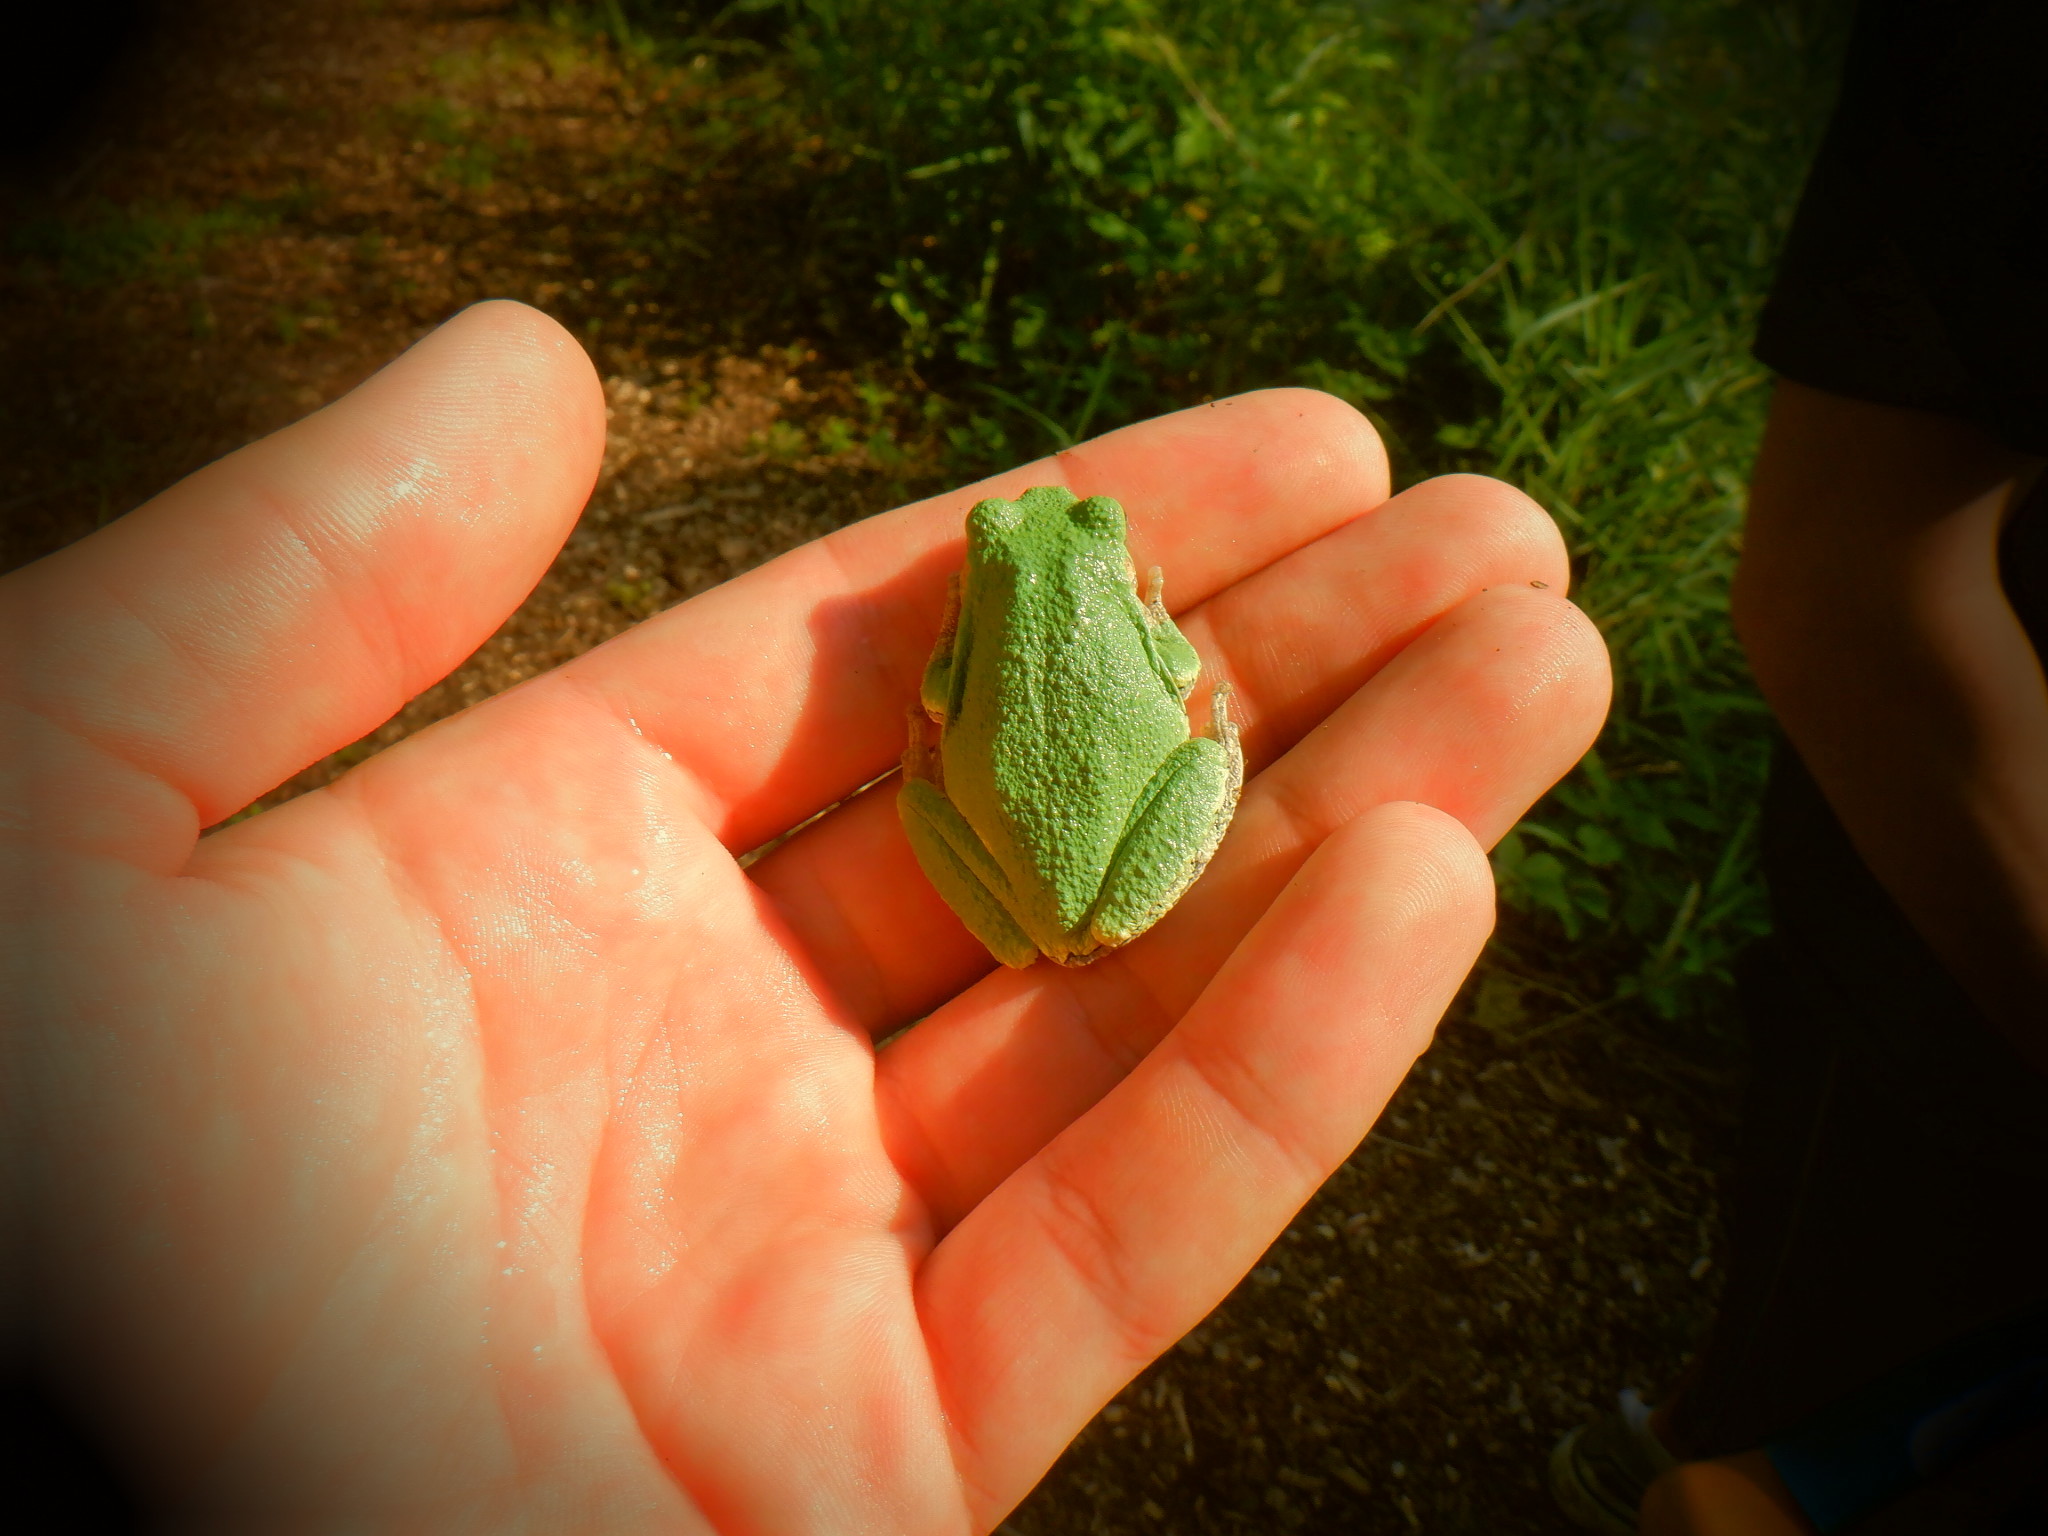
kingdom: Animalia
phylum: Chordata
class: Amphibia
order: Anura
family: Hylidae
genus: Hyla
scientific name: Hyla
